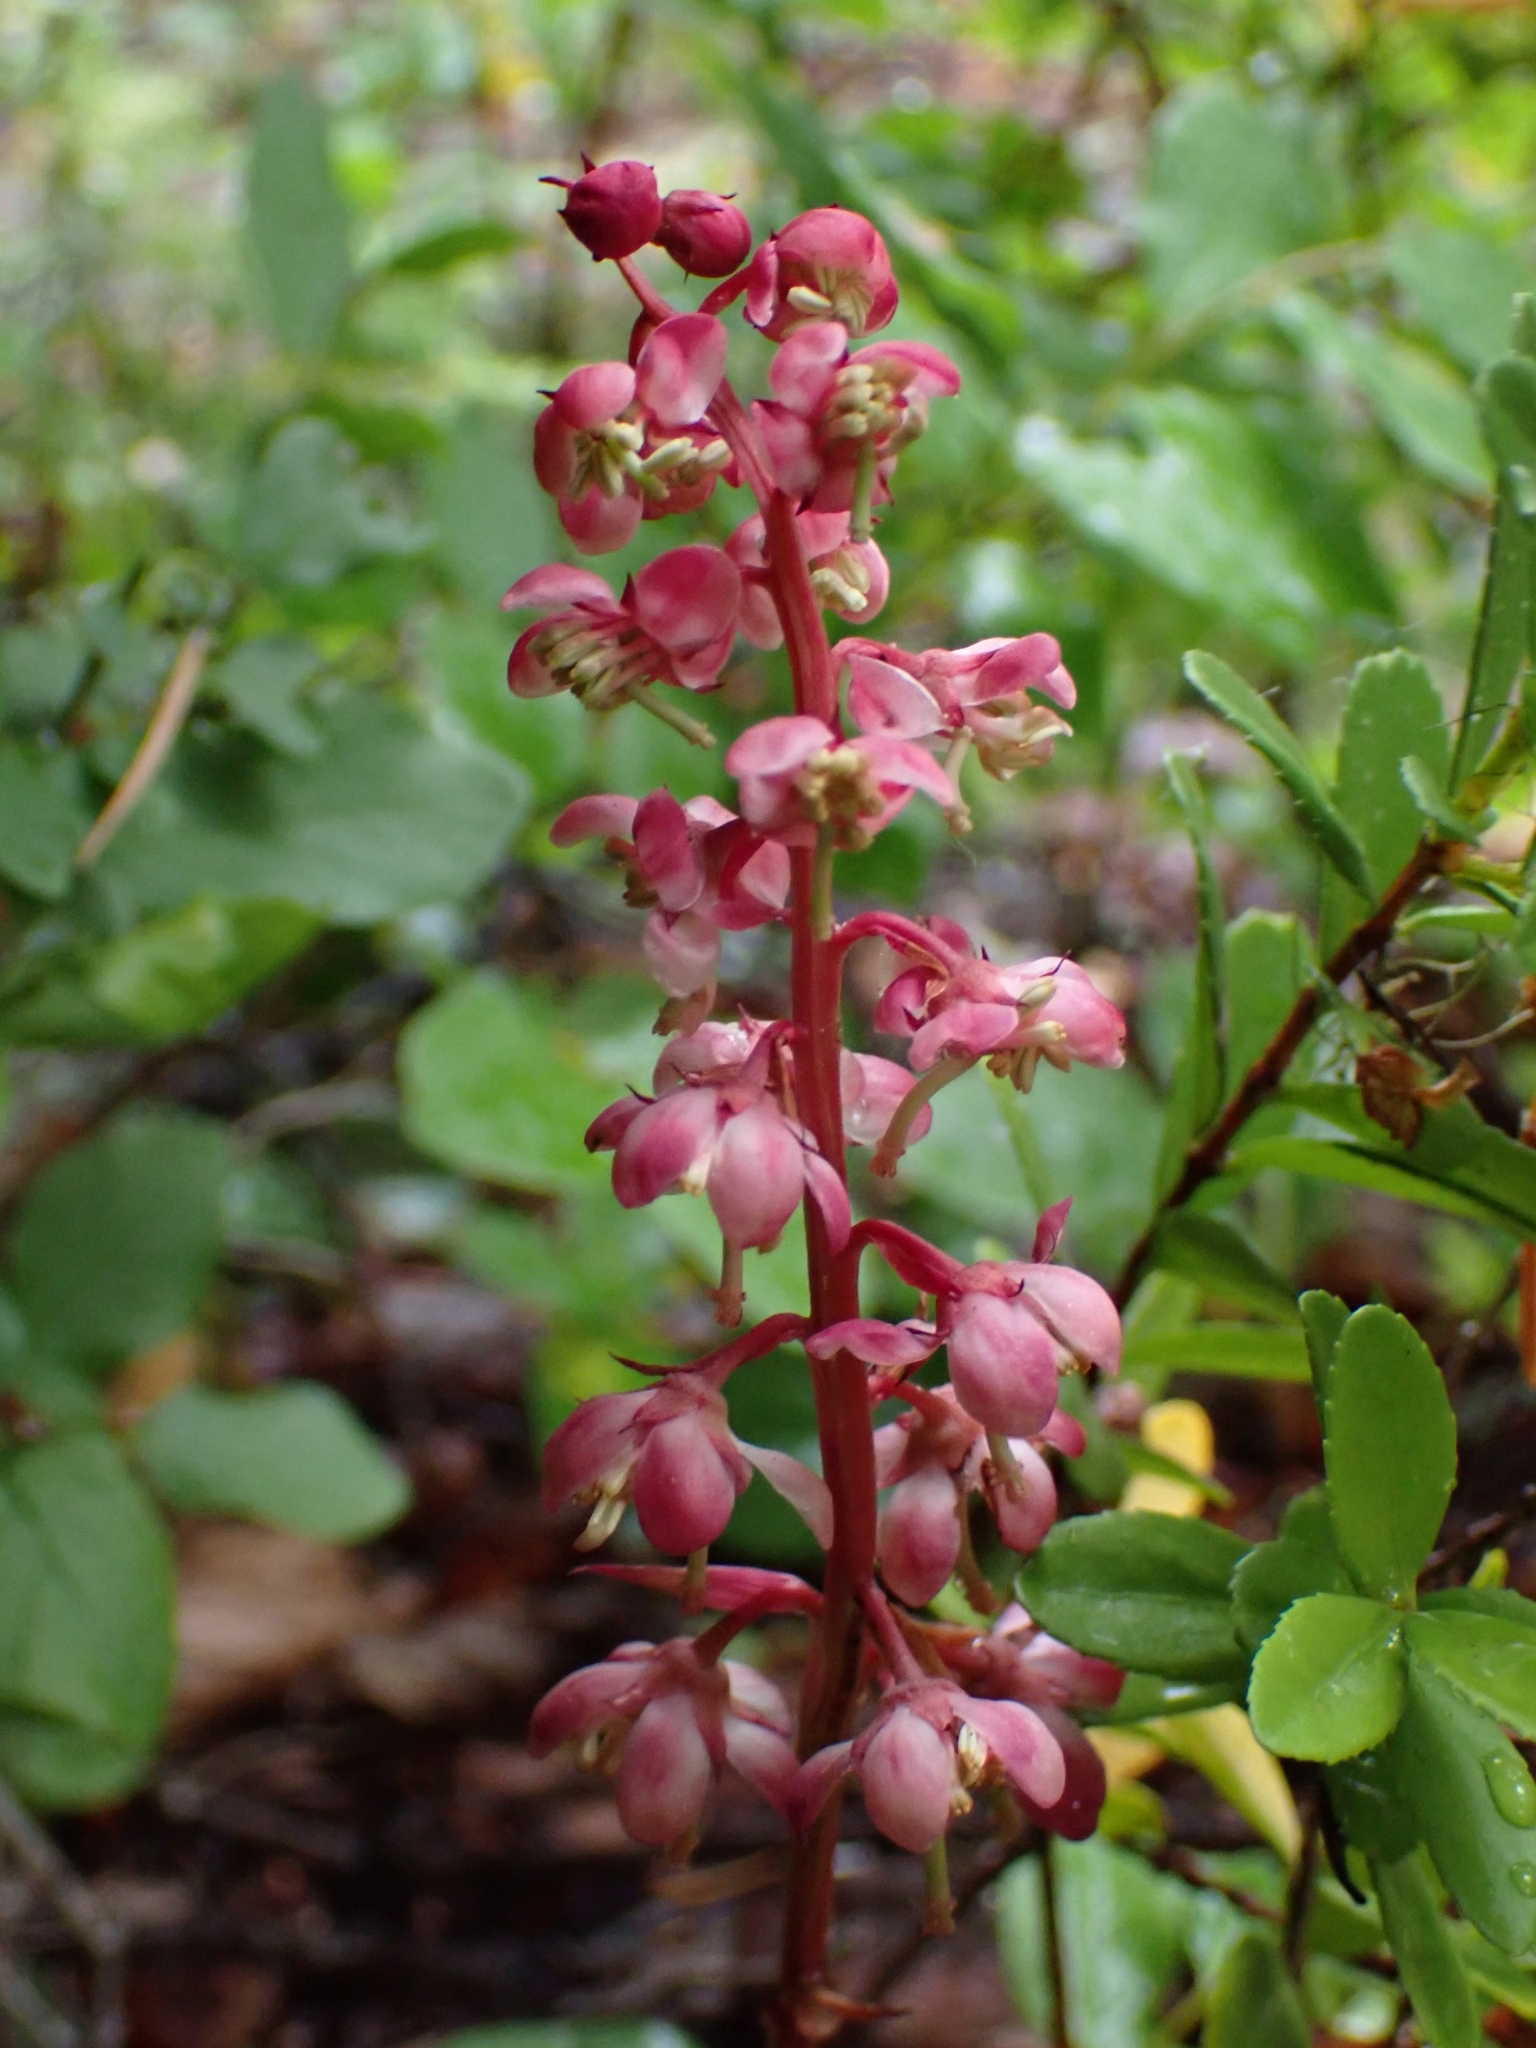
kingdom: Plantae
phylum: Tracheophyta
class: Magnoliopsida
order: Ericales
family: Ericaceae
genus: Pyrola
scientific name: Pyrola asarifolia
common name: Bog wintergreen
